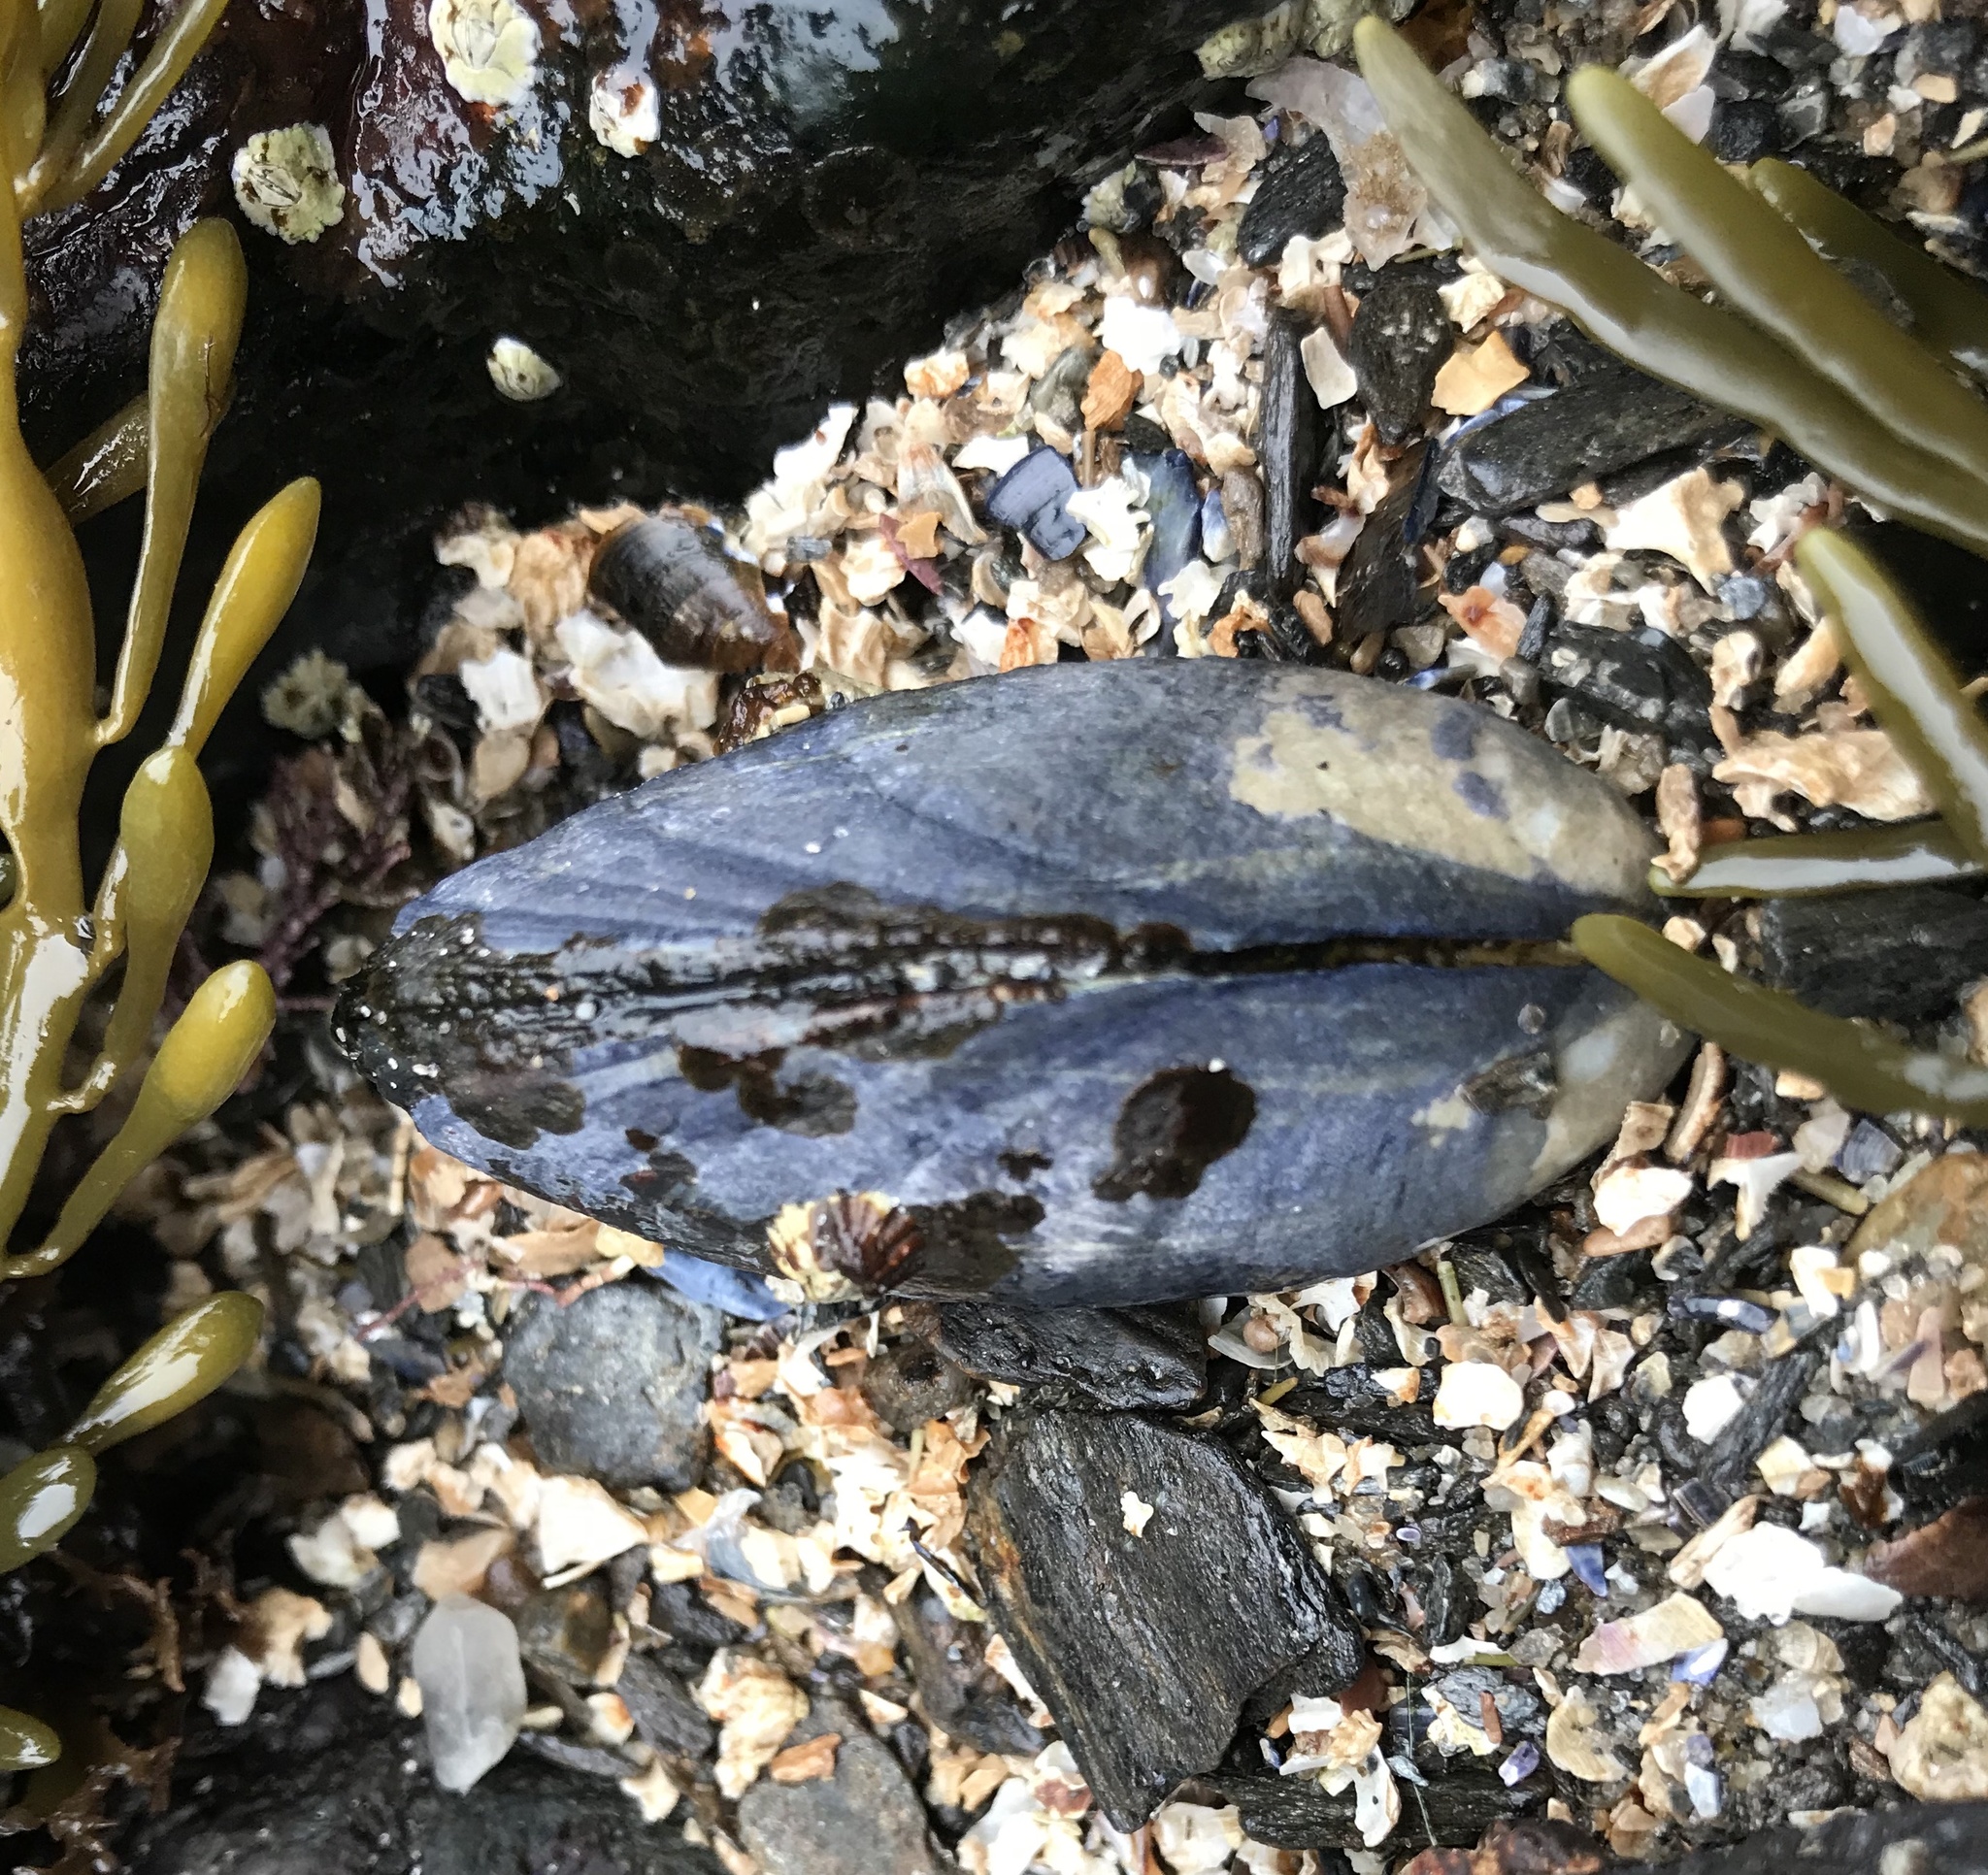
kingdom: Animalia
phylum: Mollusca
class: Bivalvia
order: Mytilida
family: Mytilidae
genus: Mytilus
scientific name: Mytilus edulis
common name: Blue mussel
